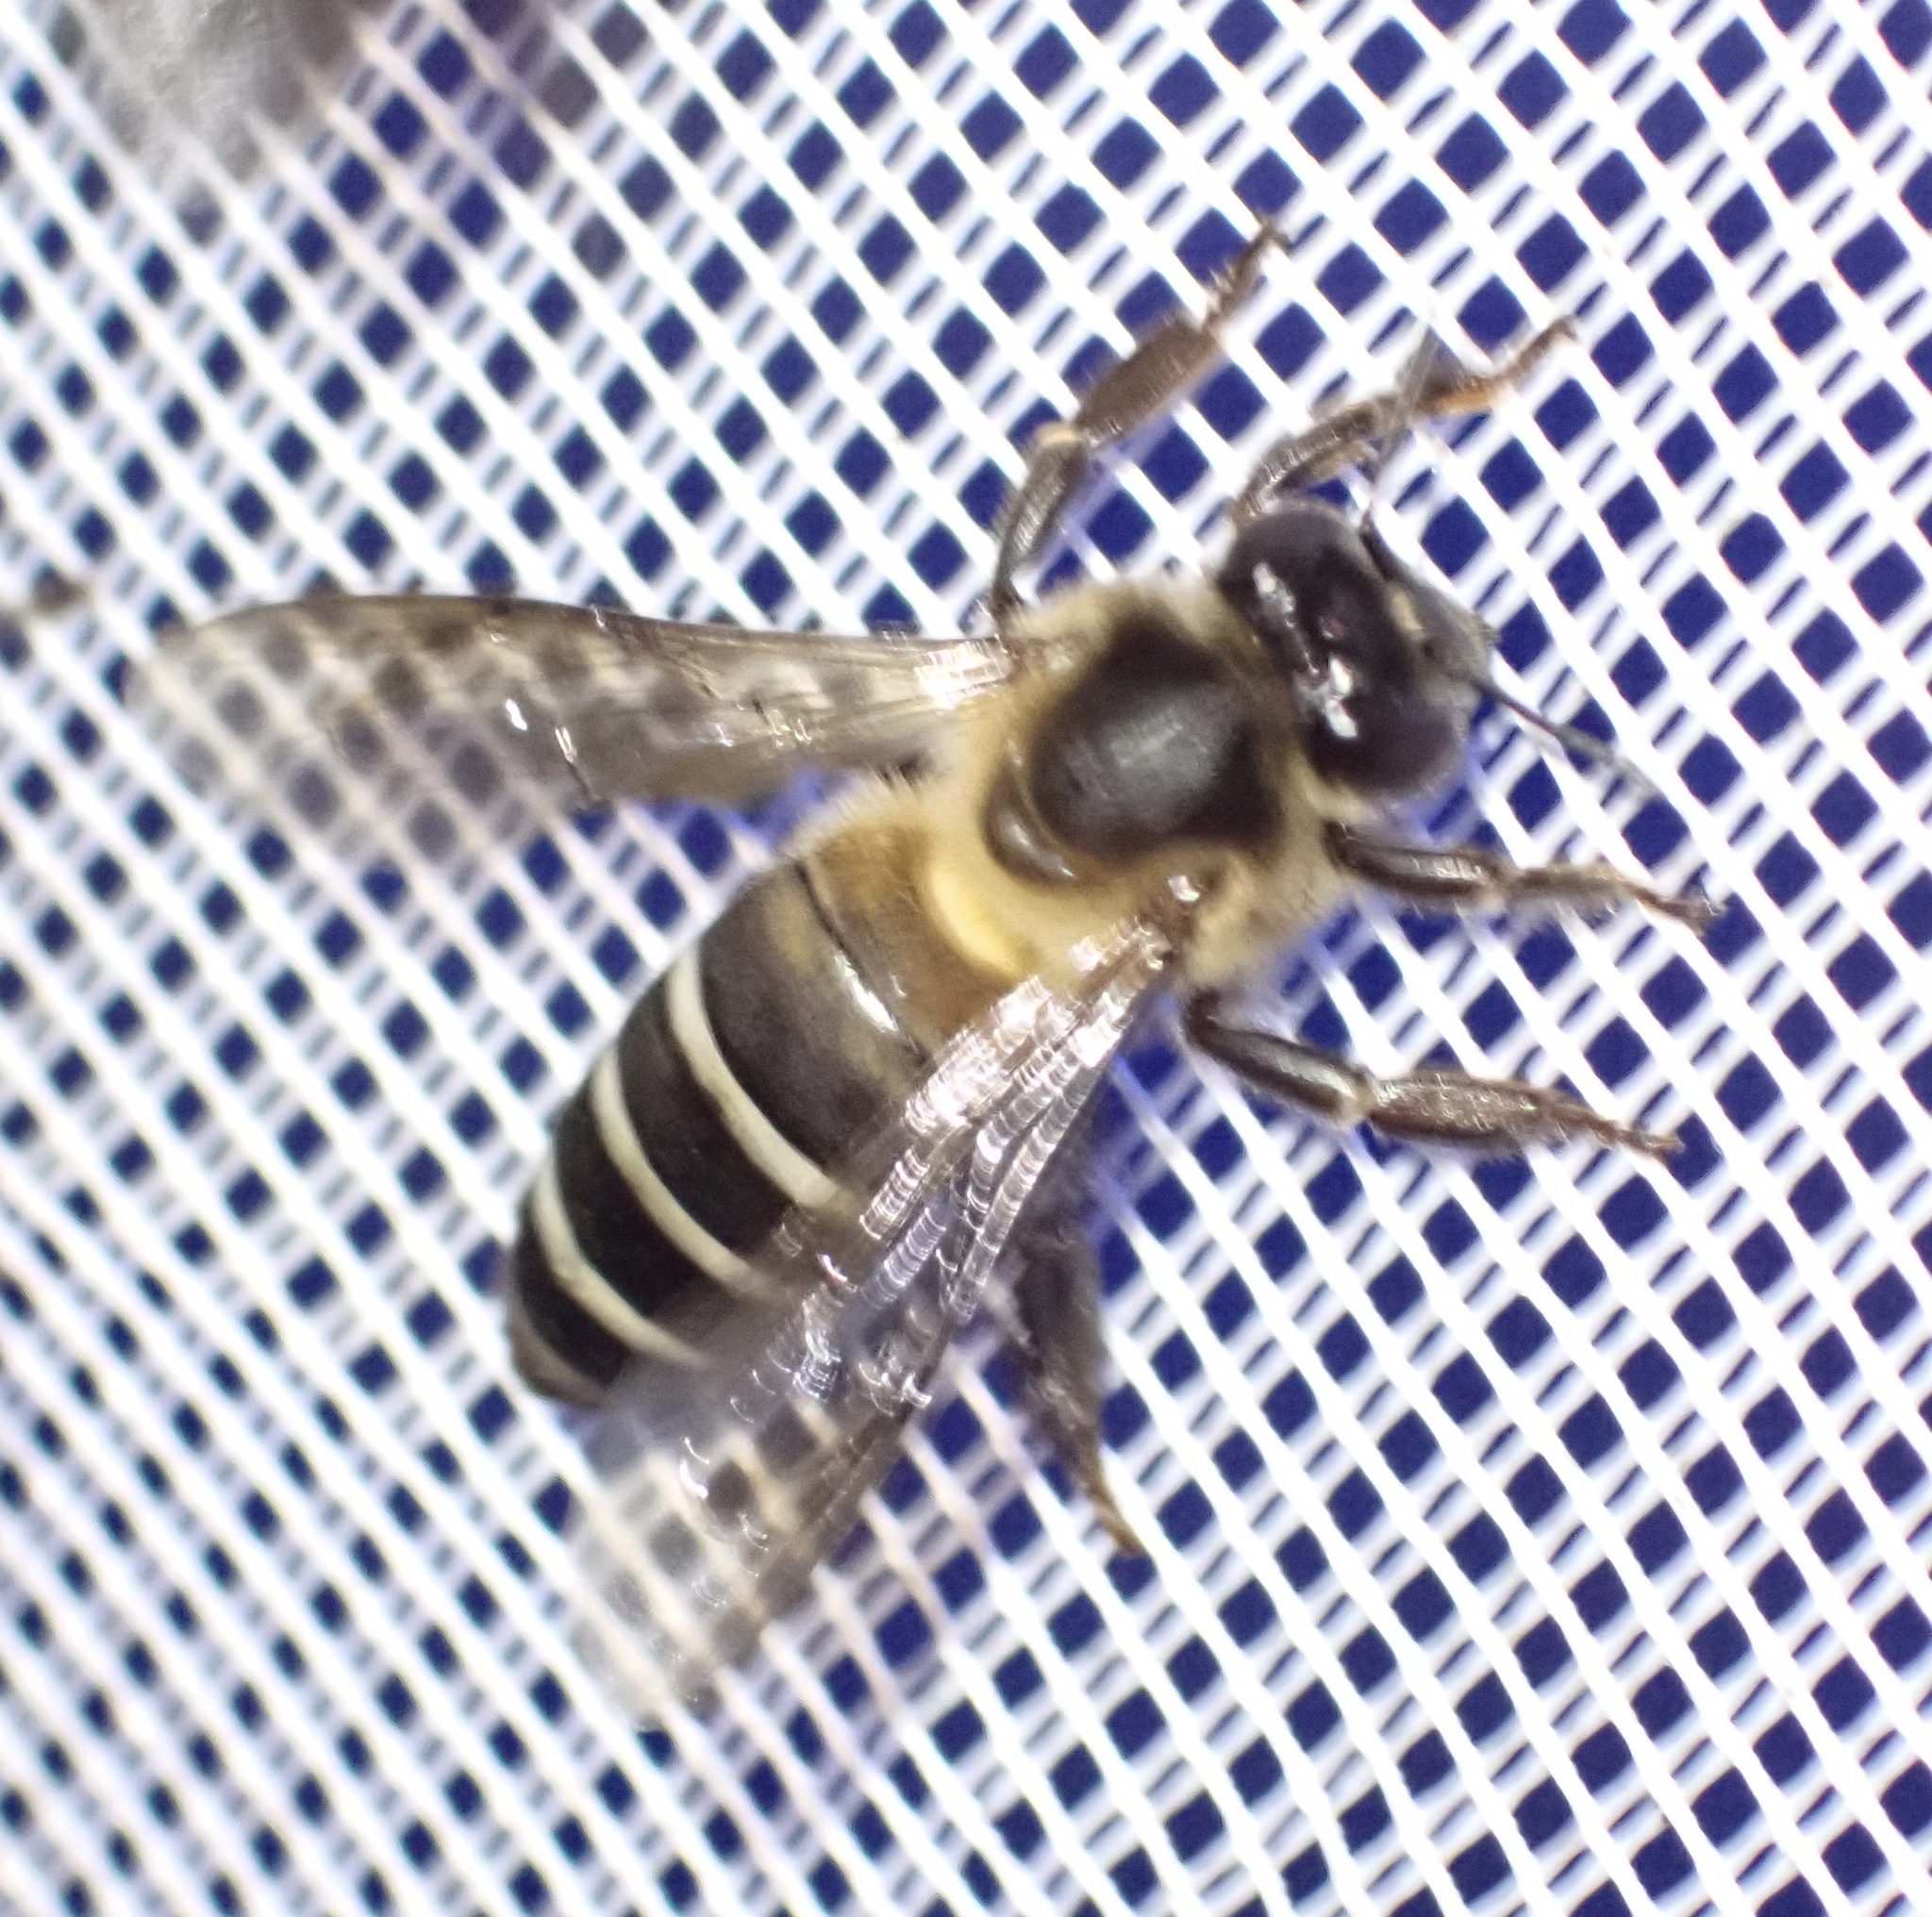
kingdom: Animalia
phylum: Arthropoda
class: Insecta
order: Hymenoptera
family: Apidae
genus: Apis
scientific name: Apis dorsata
